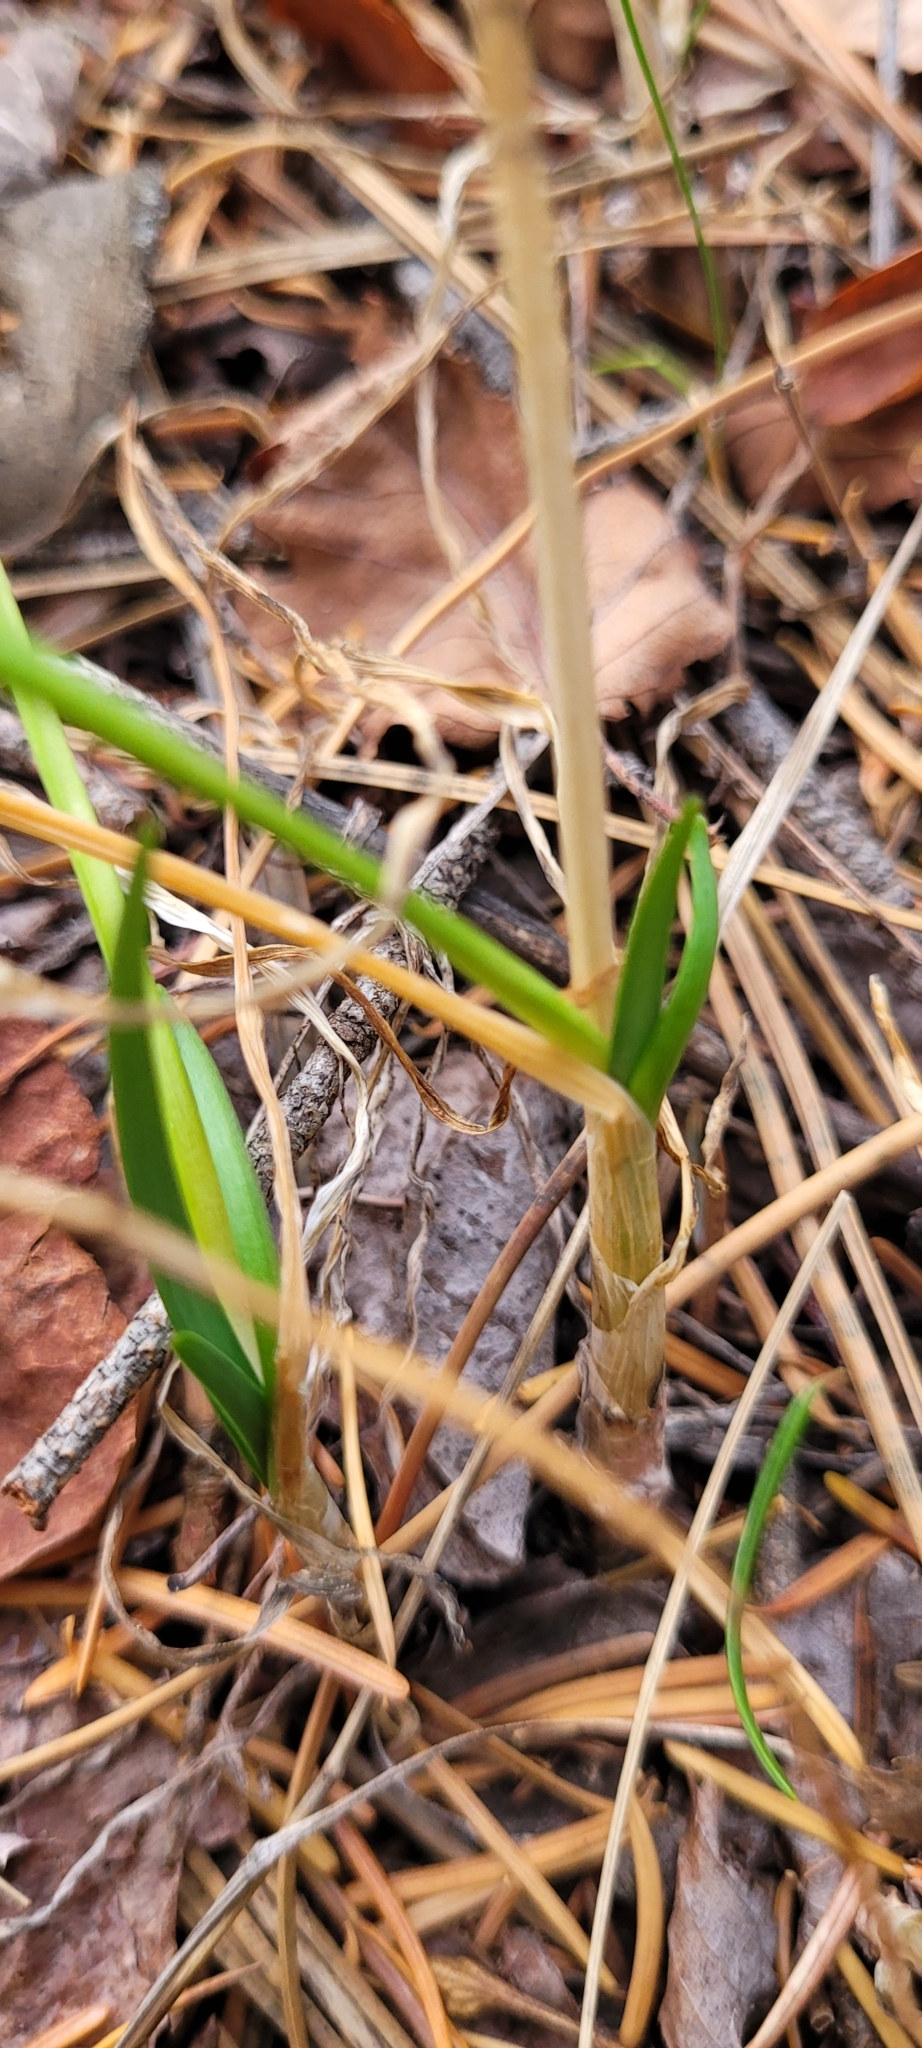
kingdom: Plantae
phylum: Tracheophyta
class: Liliopsida
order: Asparagales
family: Amaryllidaceae
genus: Allium
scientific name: Allium cernuum
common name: Nodding onion
